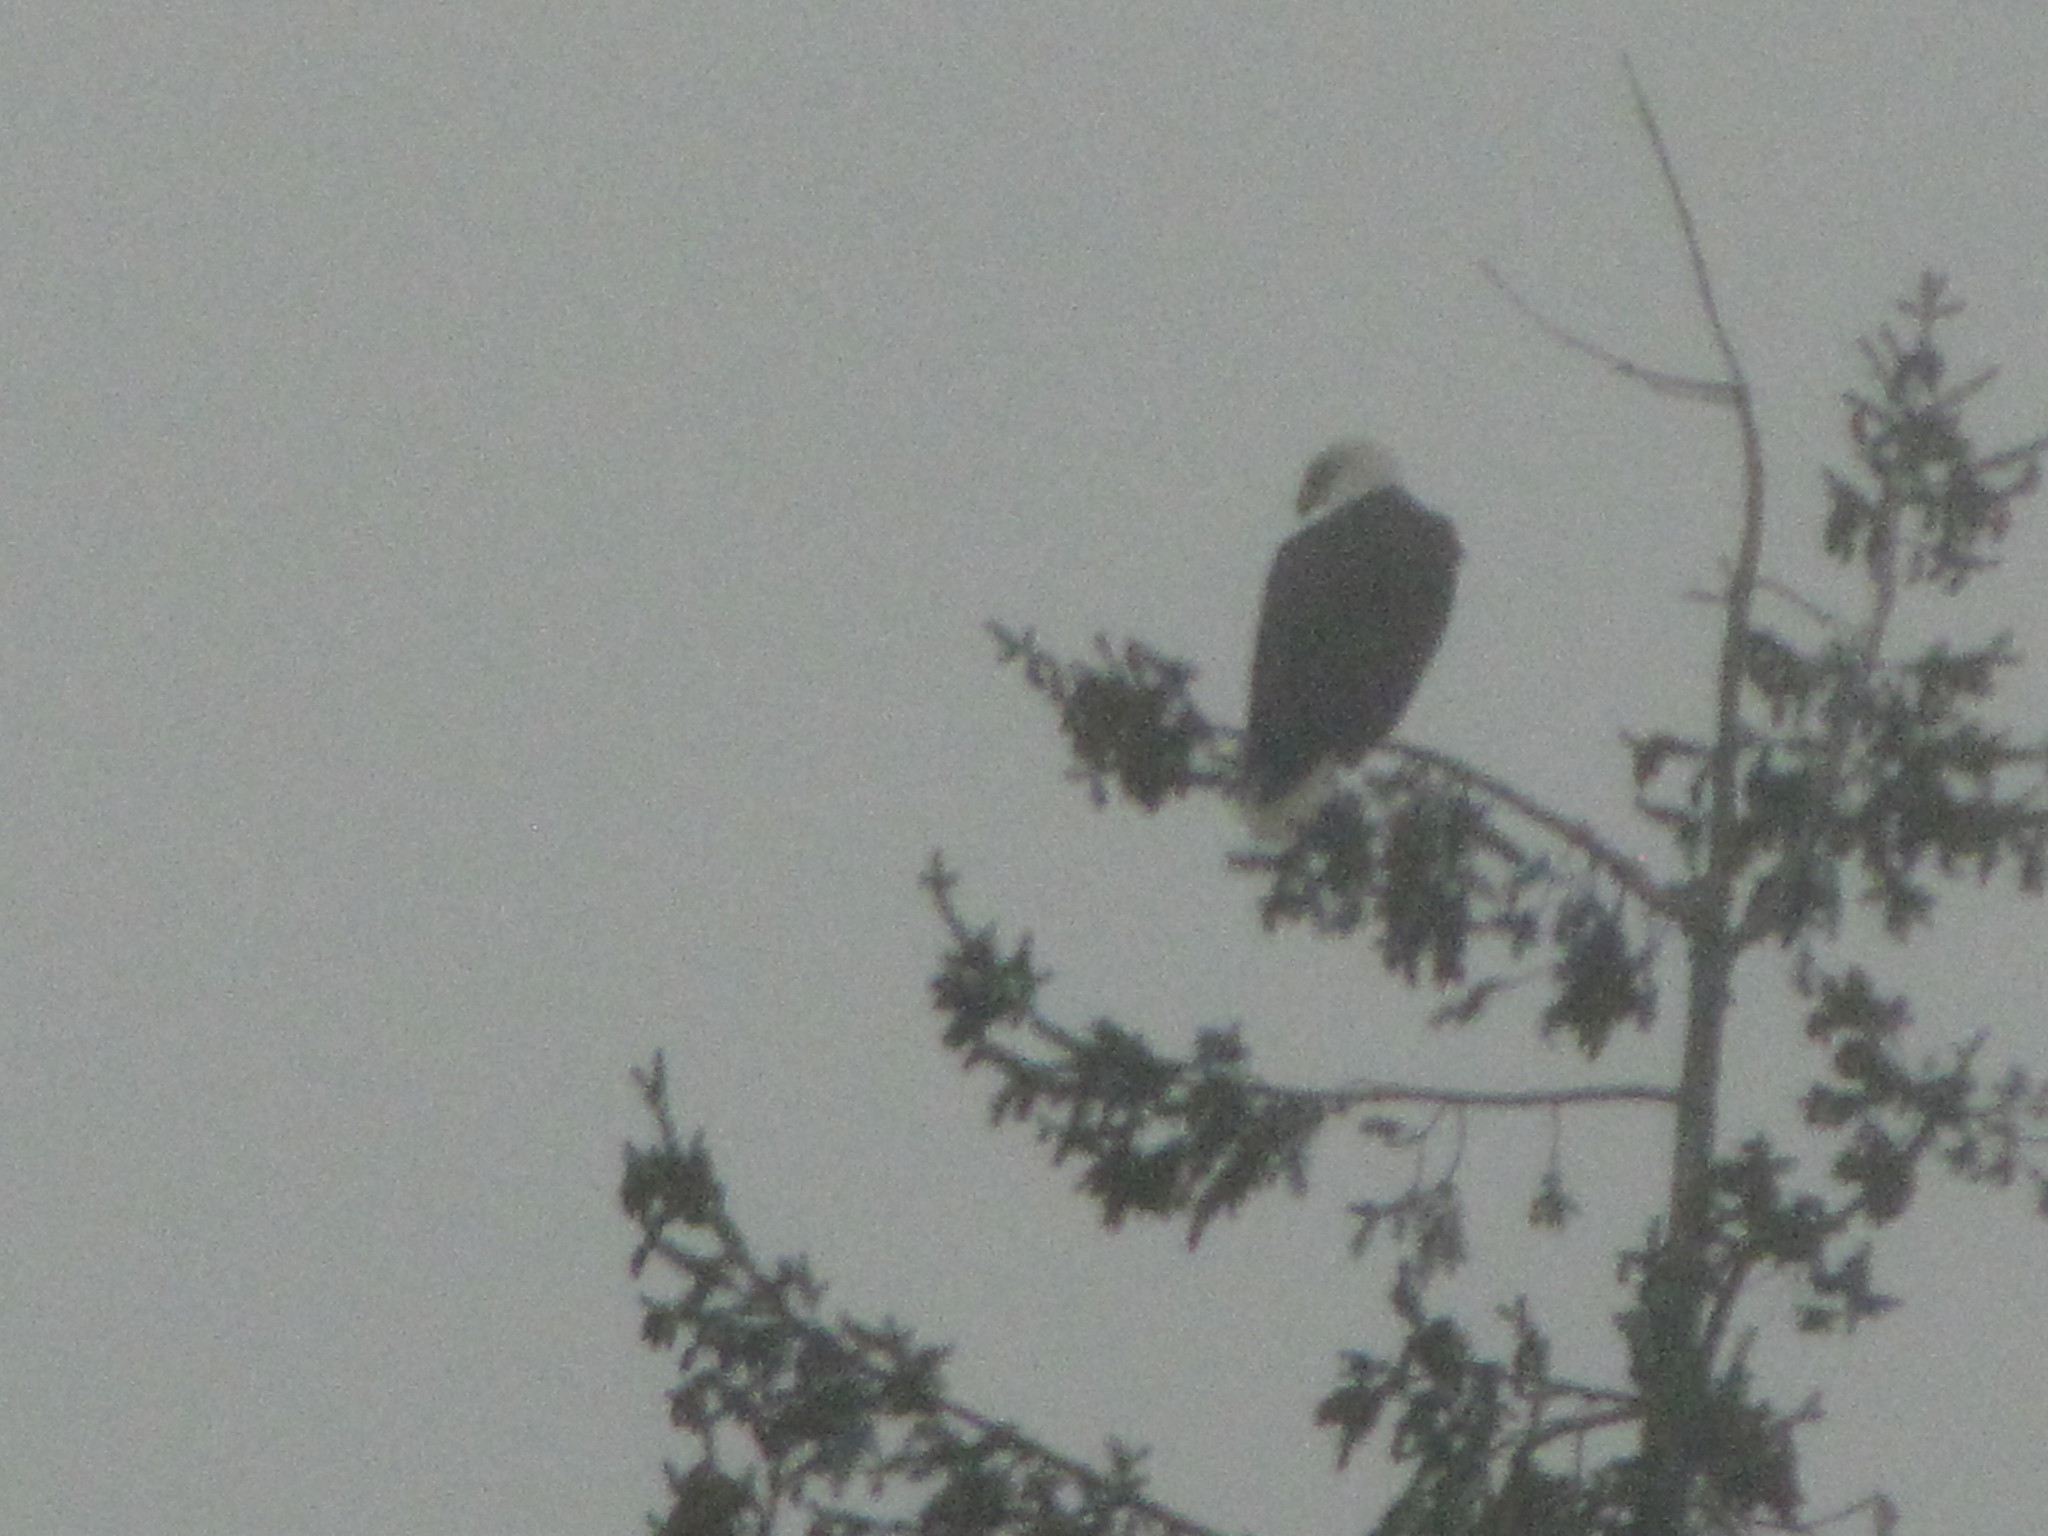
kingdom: Animalia
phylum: Chordata
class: Aves
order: Accipitriformes
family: Accipitridae
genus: Haliaeetus
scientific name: Haliaeetus leucocephalus
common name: Bald eagle
